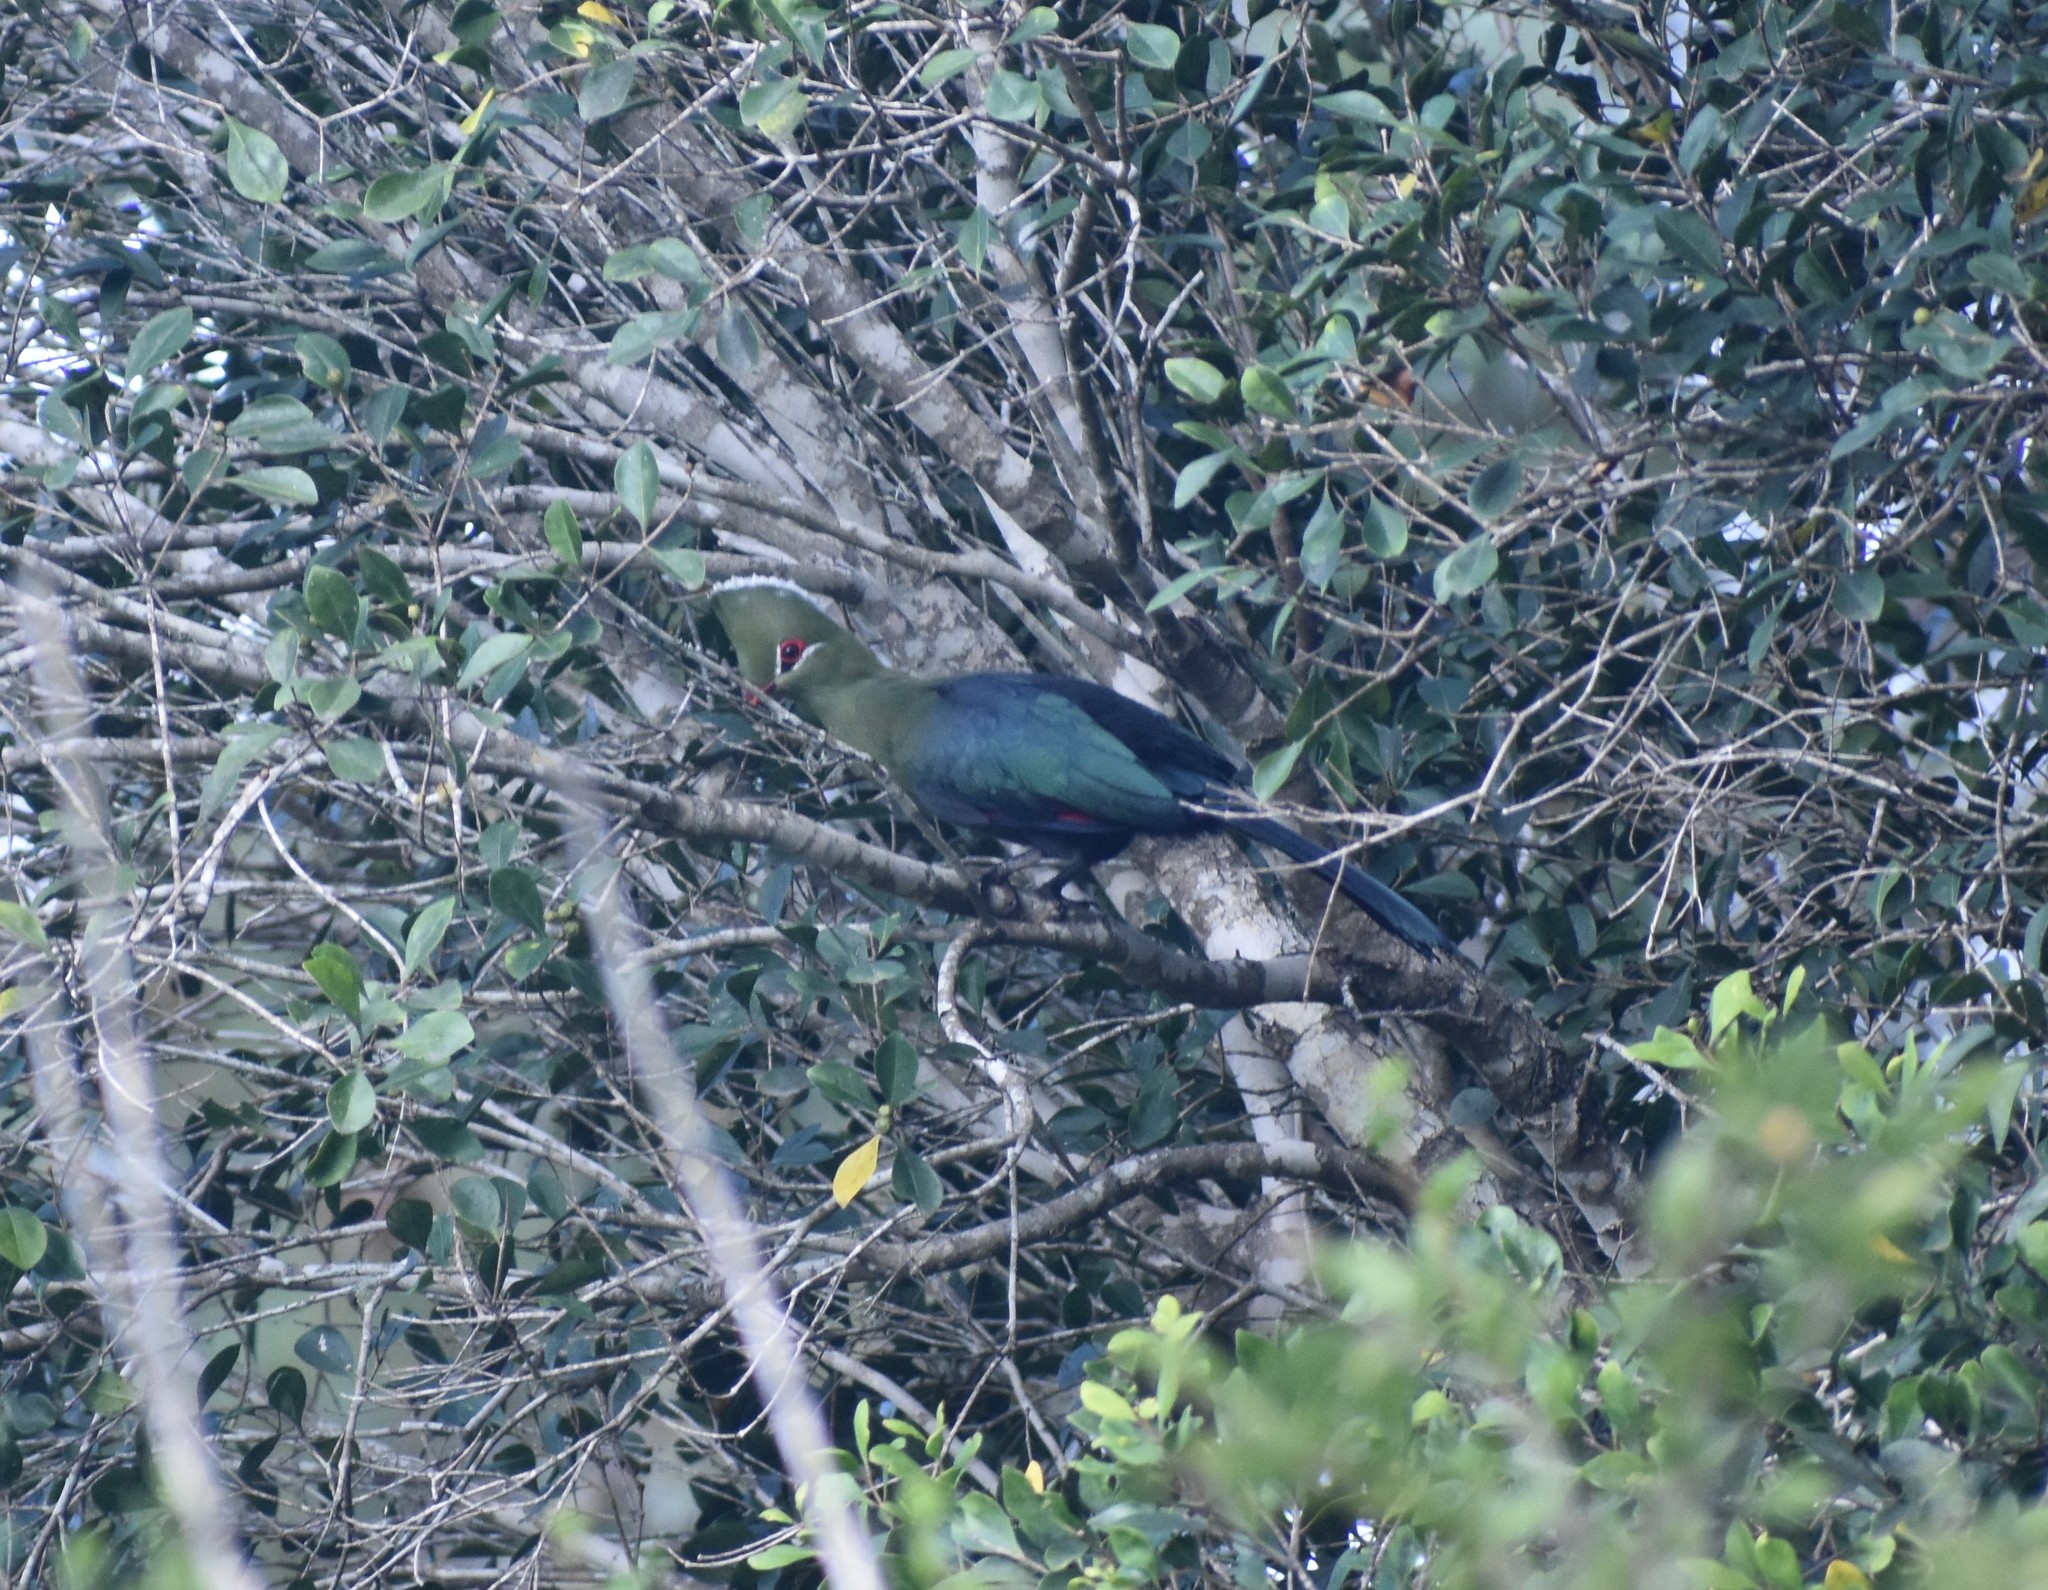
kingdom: Animalia
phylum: Chordata
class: Aves
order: Musophagiformes
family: Musophagidae
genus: Tauraco
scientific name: Tauraco corythaix
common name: Knysna turaco
